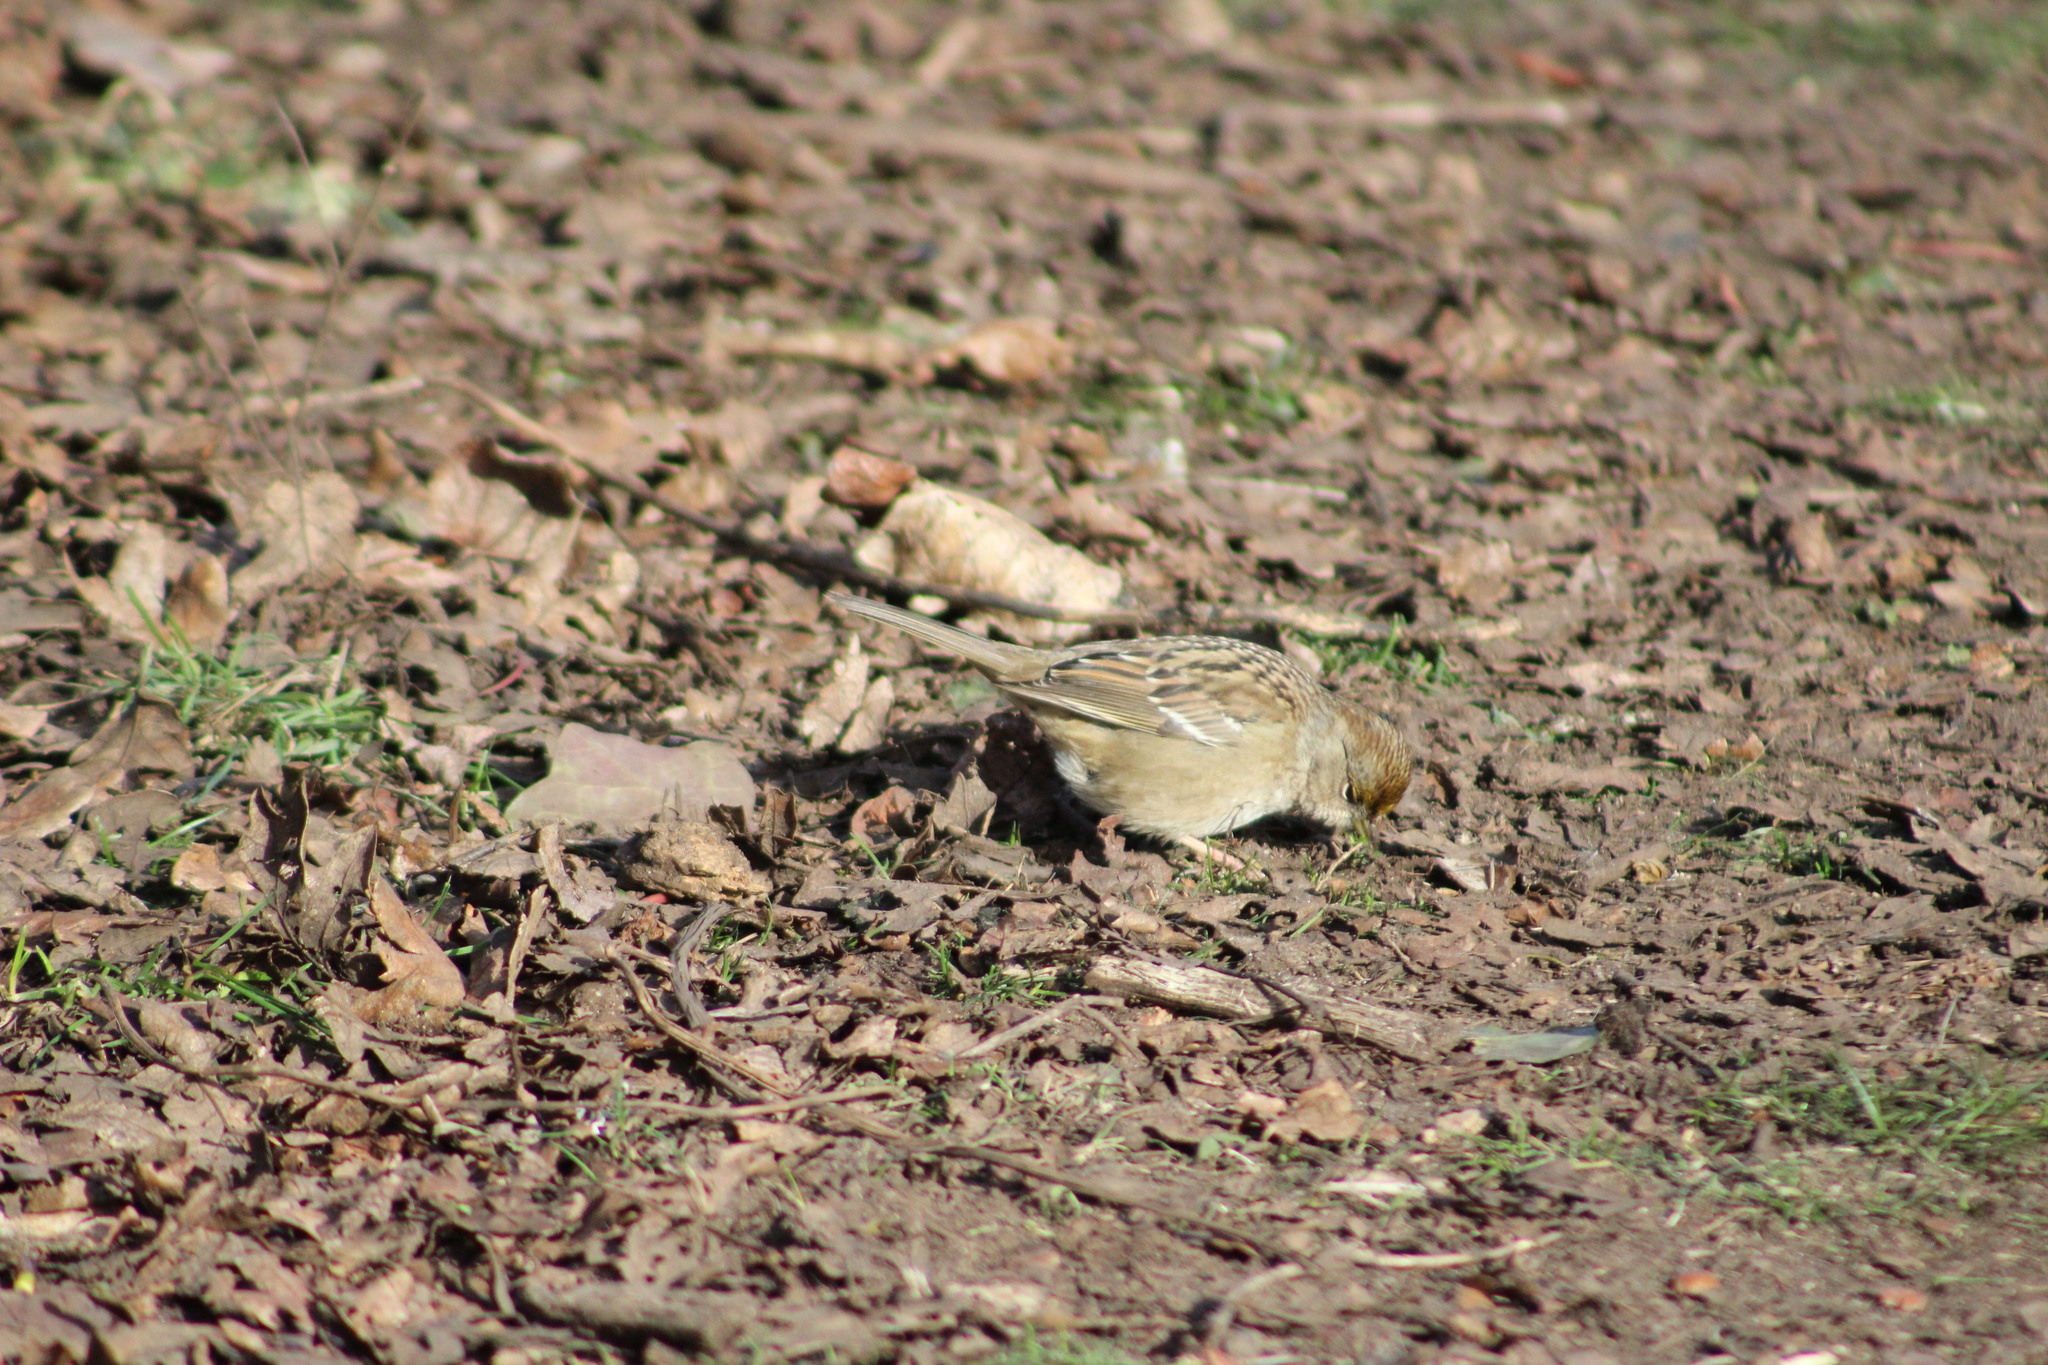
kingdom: Animalia
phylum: Chordata
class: Aves
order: Passeriformes
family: Passerellidae
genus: Zonotrichia
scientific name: Zonotrichia atricapilla
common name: Golden-crowned sparrow
